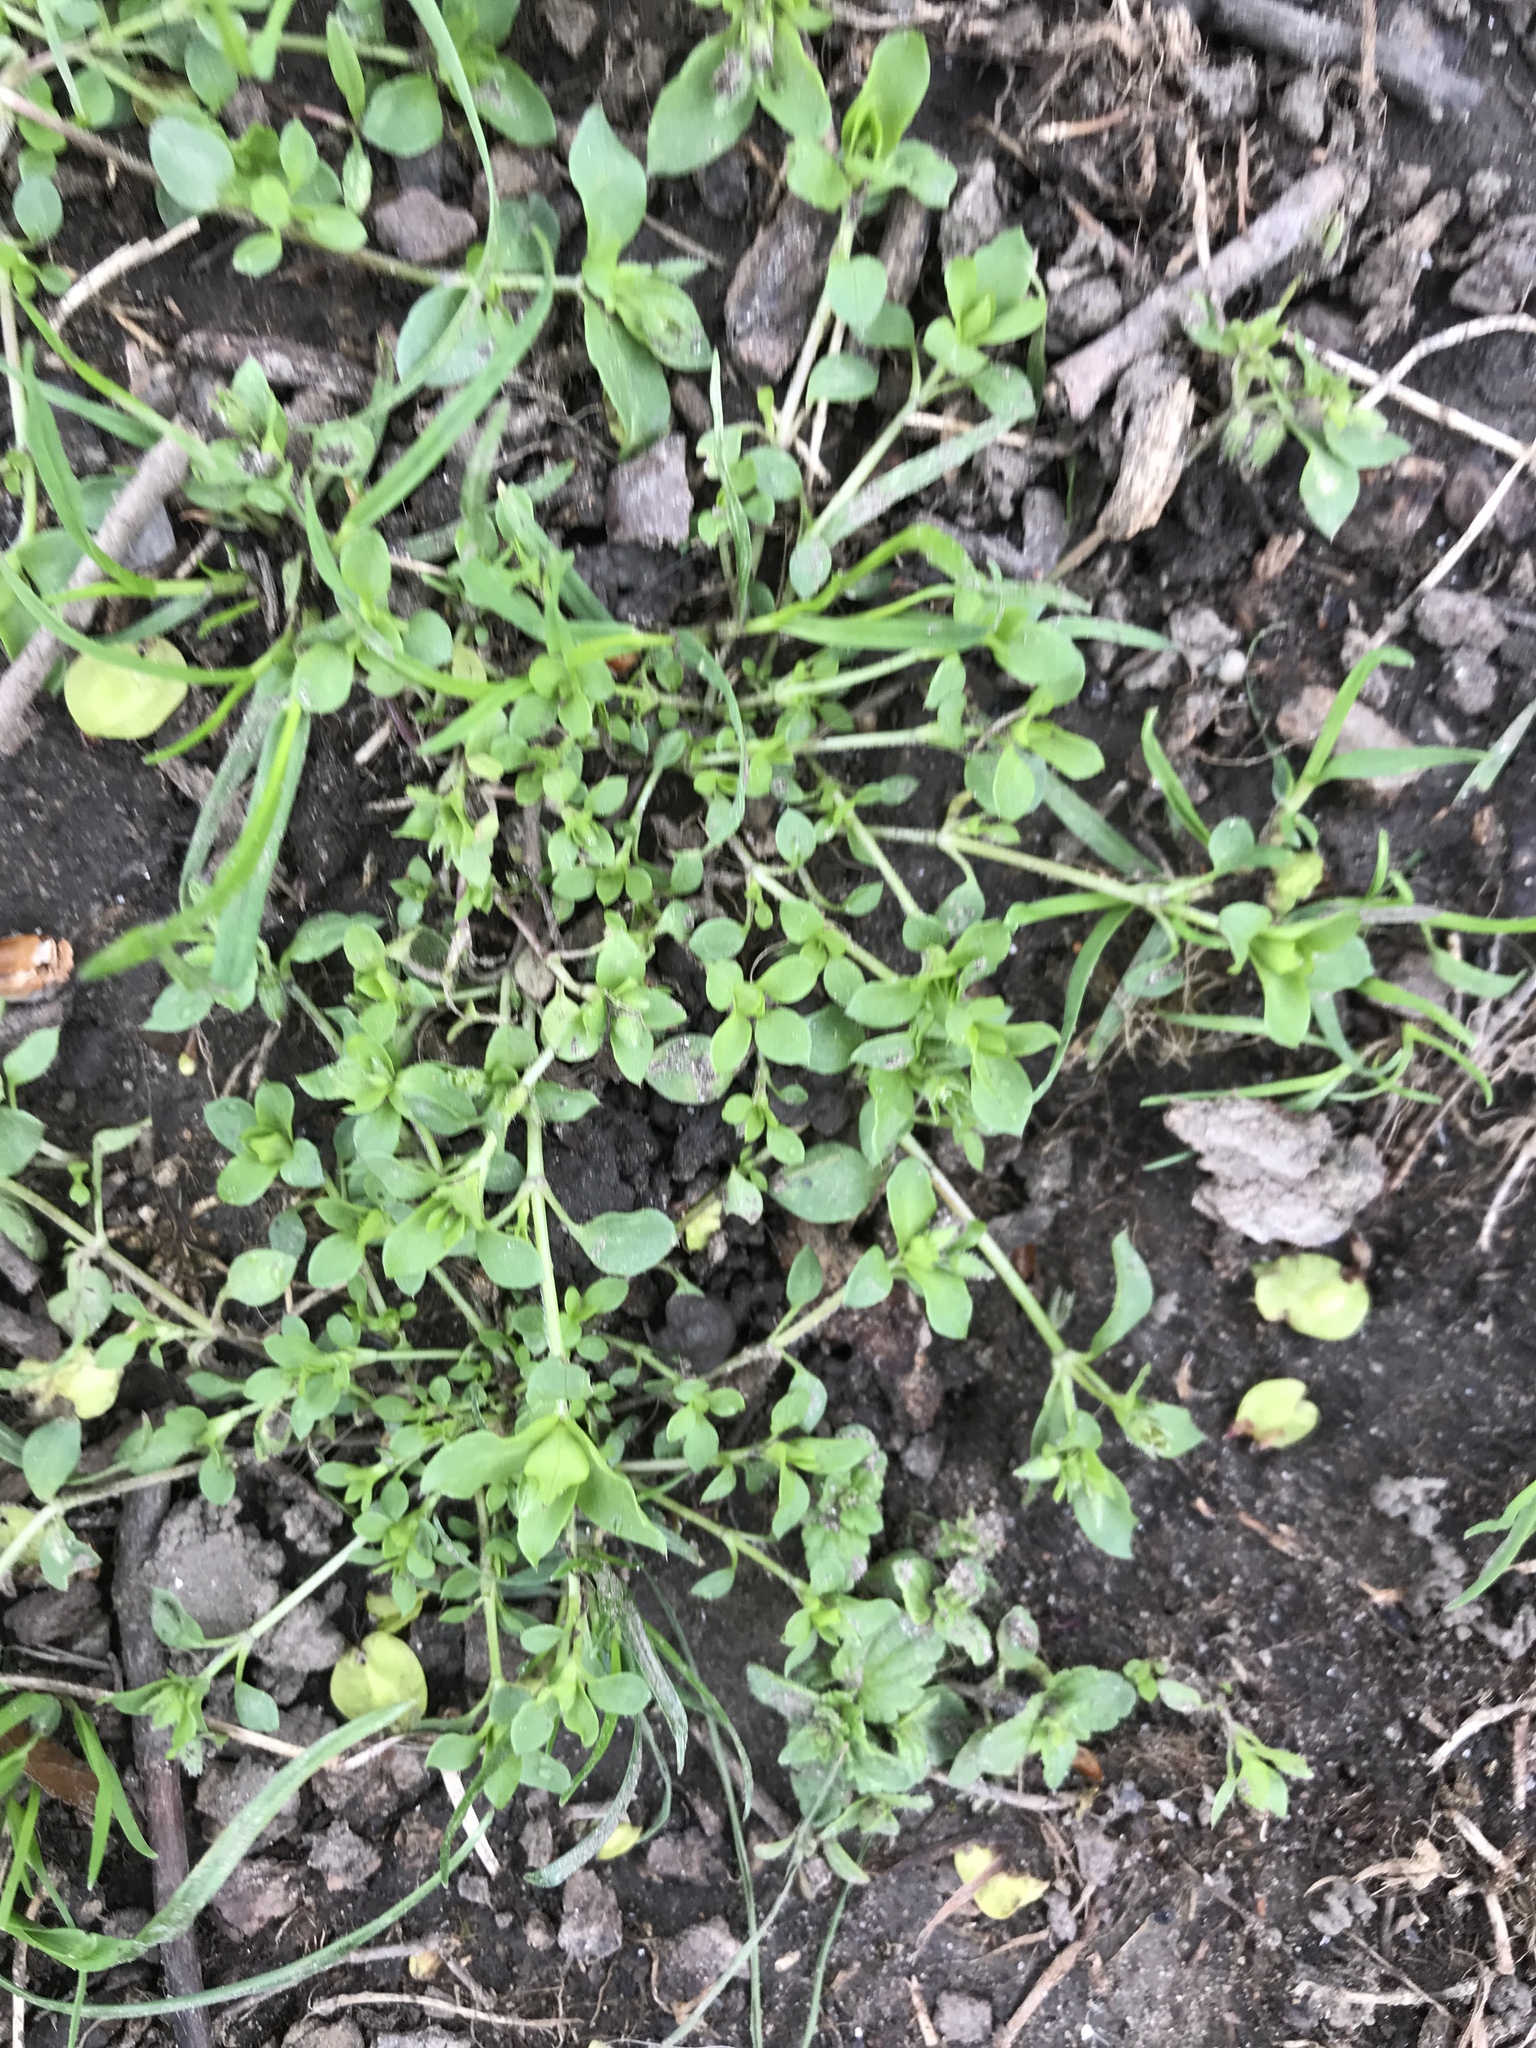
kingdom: Plantae
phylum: Tracheophyta
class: Magnoliopsida
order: Caryophyllales
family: Caryophyllaceae
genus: Stellaria
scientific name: Stellaria media
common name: Common chickweed
